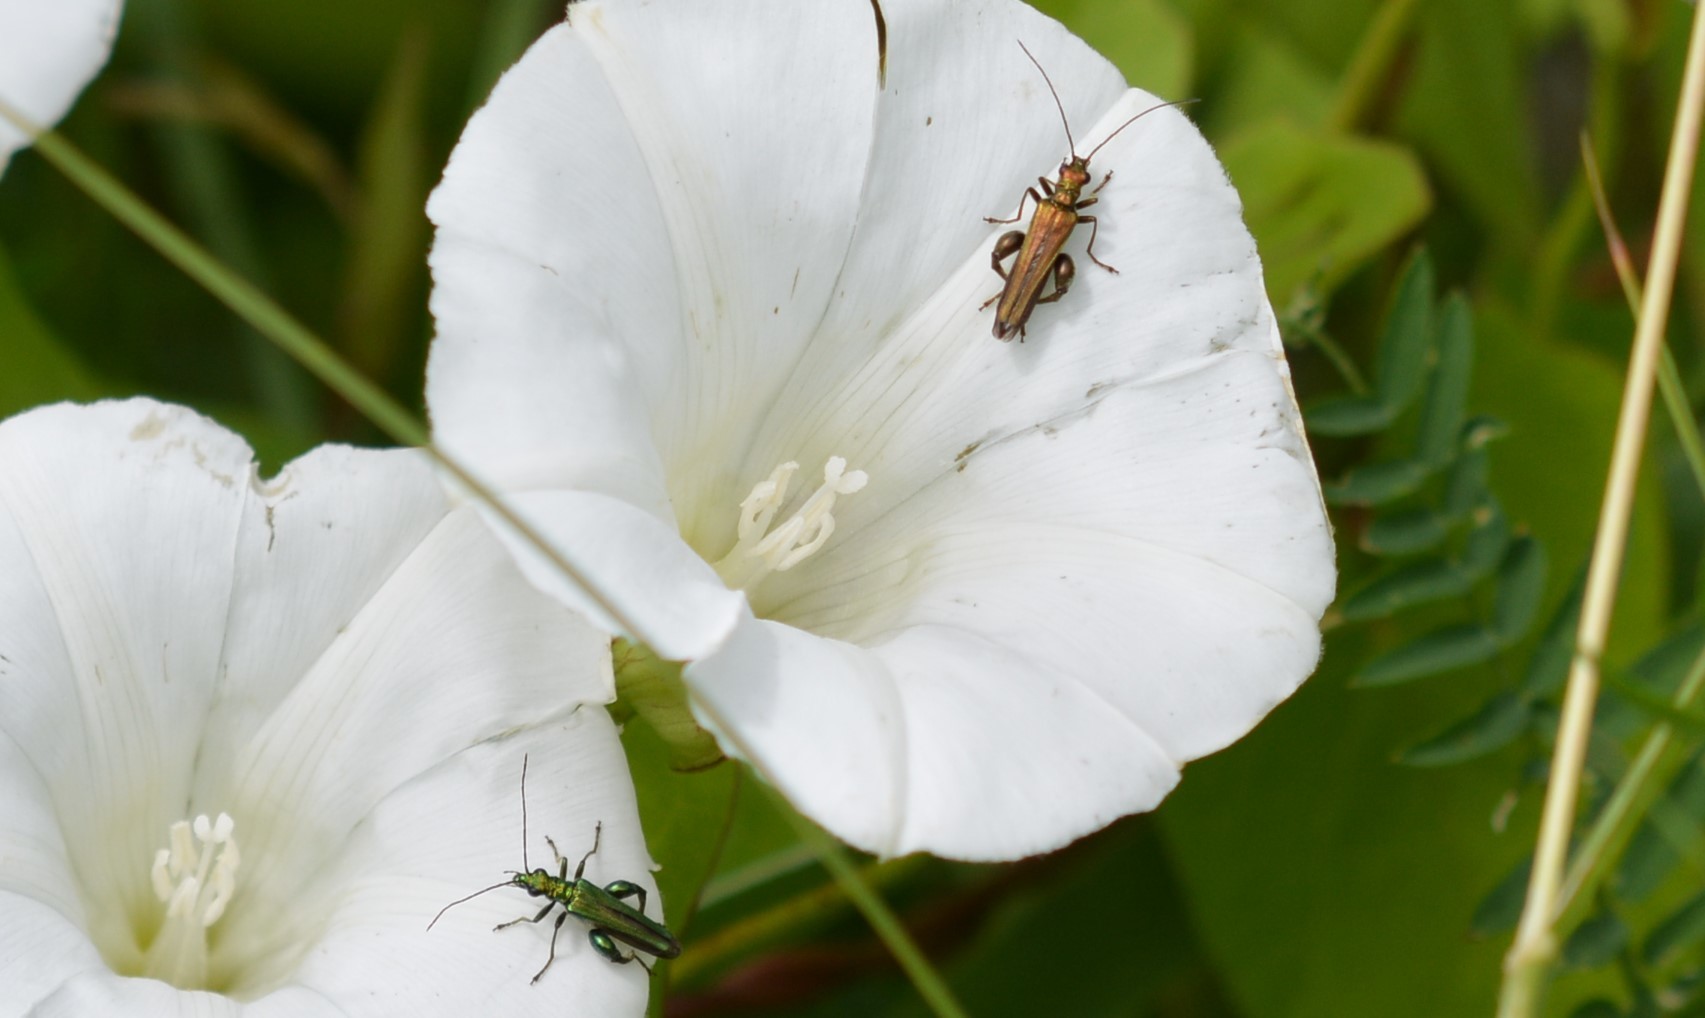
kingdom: Animalia
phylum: Arthropoda
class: Insecta
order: Coleoptera
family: Oedemeridae
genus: Oedemera
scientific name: Oedemera nobilis
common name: Swollen-thighed beetle
